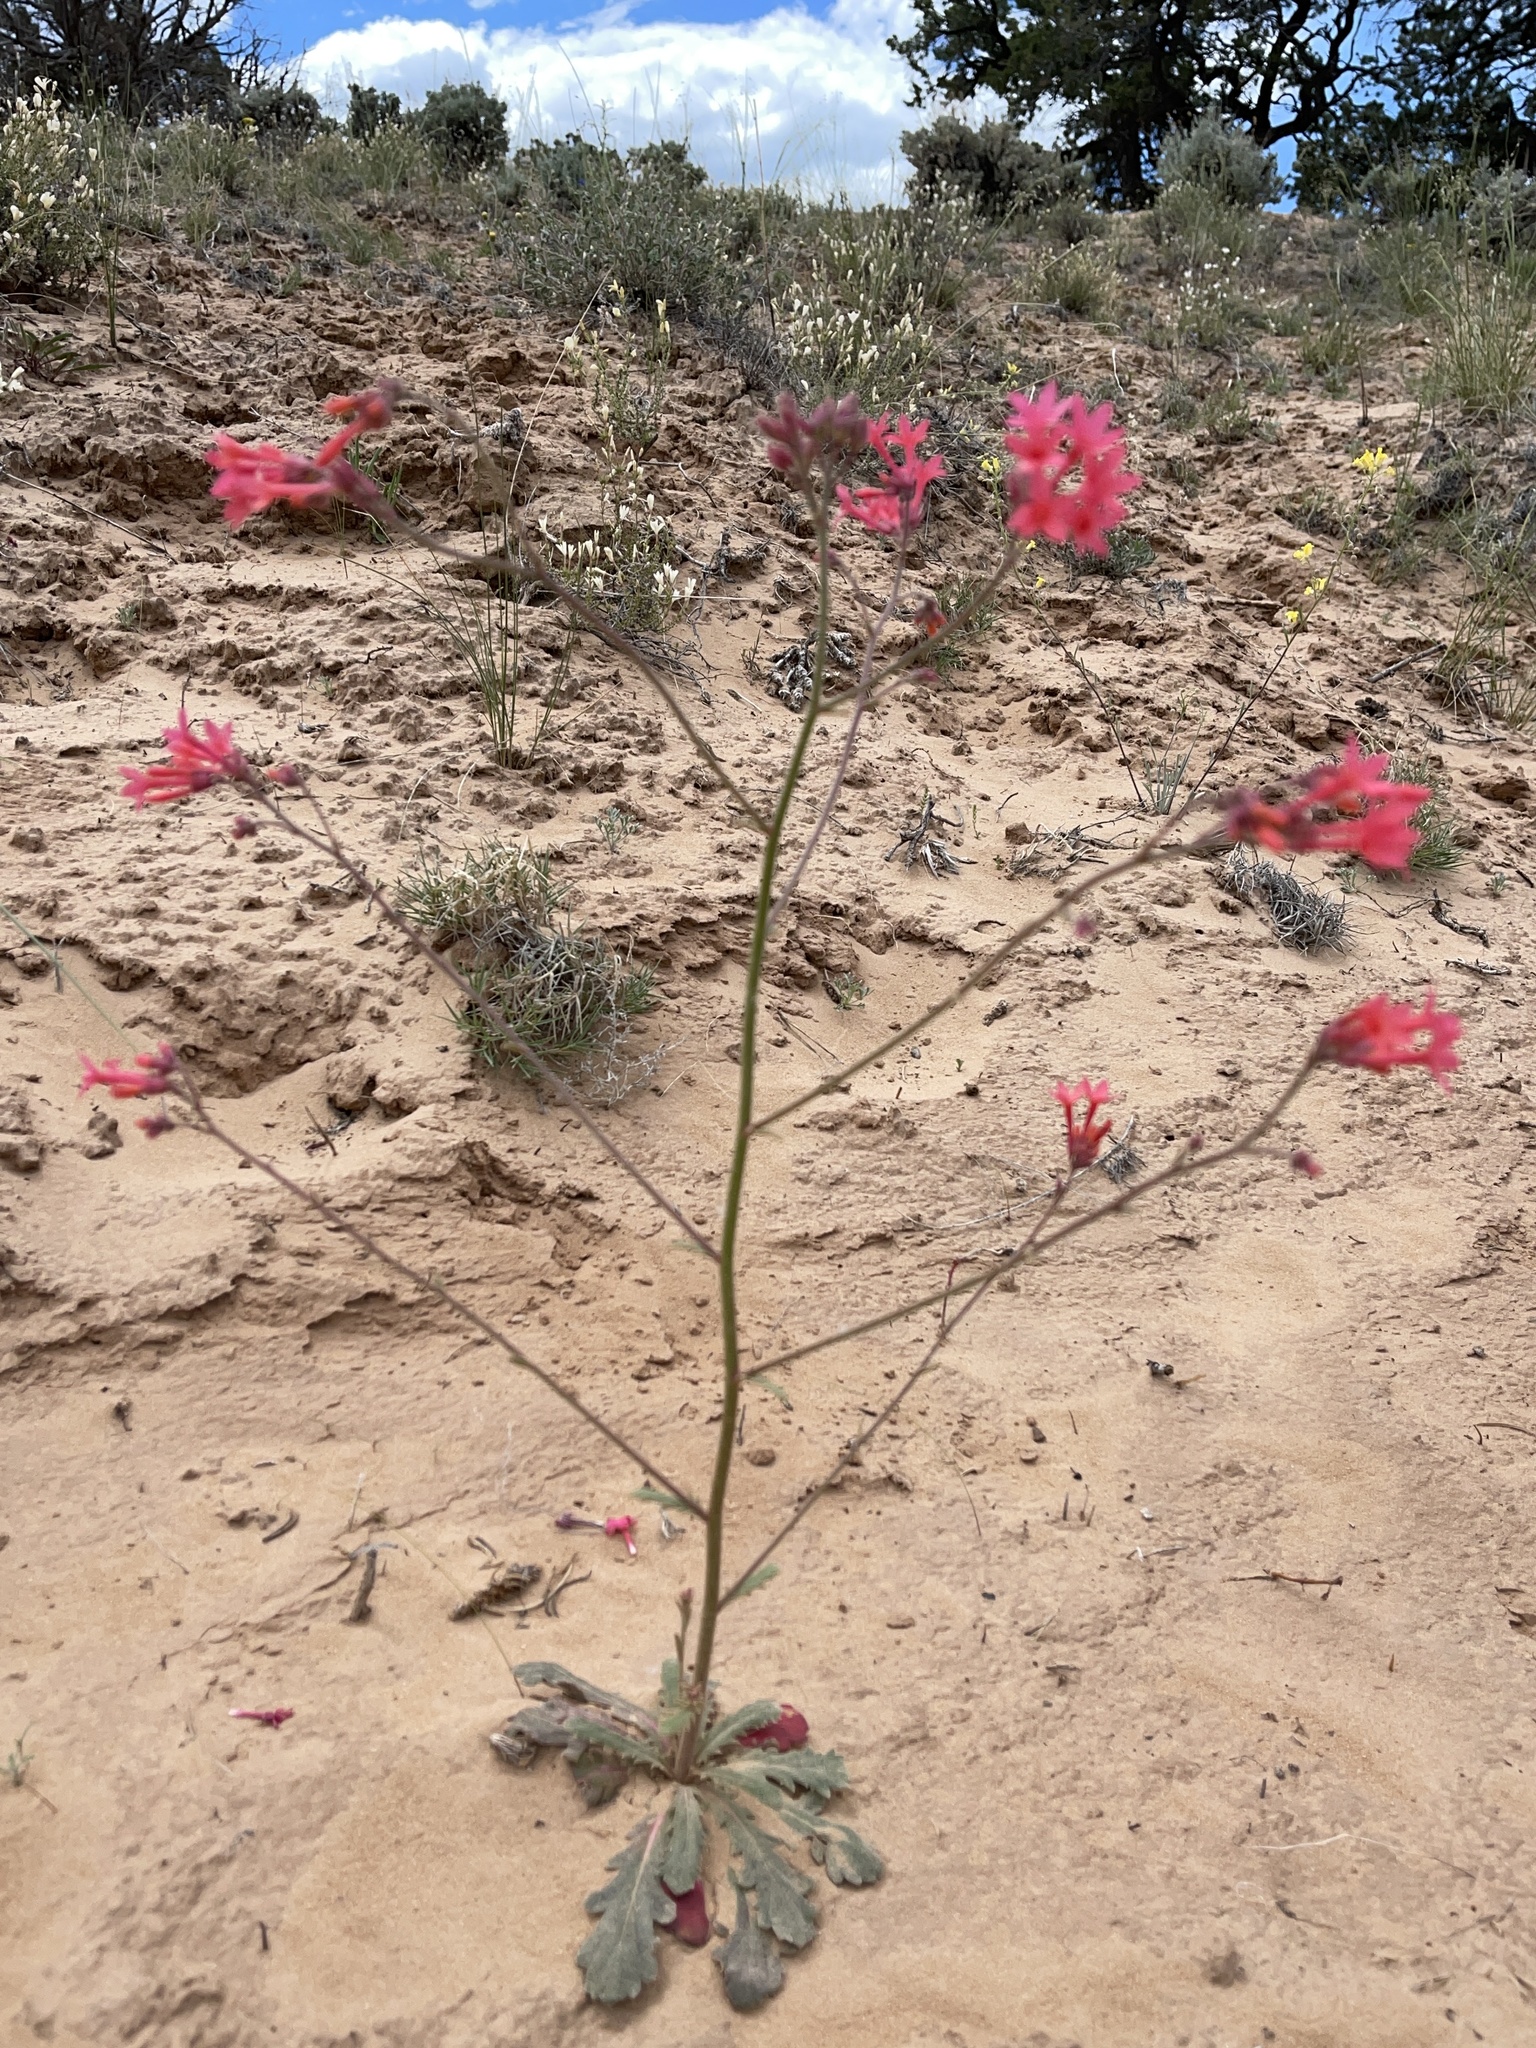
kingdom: Plantae
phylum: Tracheophyta
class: Magnoliopsida
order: Ericales
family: Polemoniaceae
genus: Aliciella
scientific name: Aliciella subnuda
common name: Coral gilia
